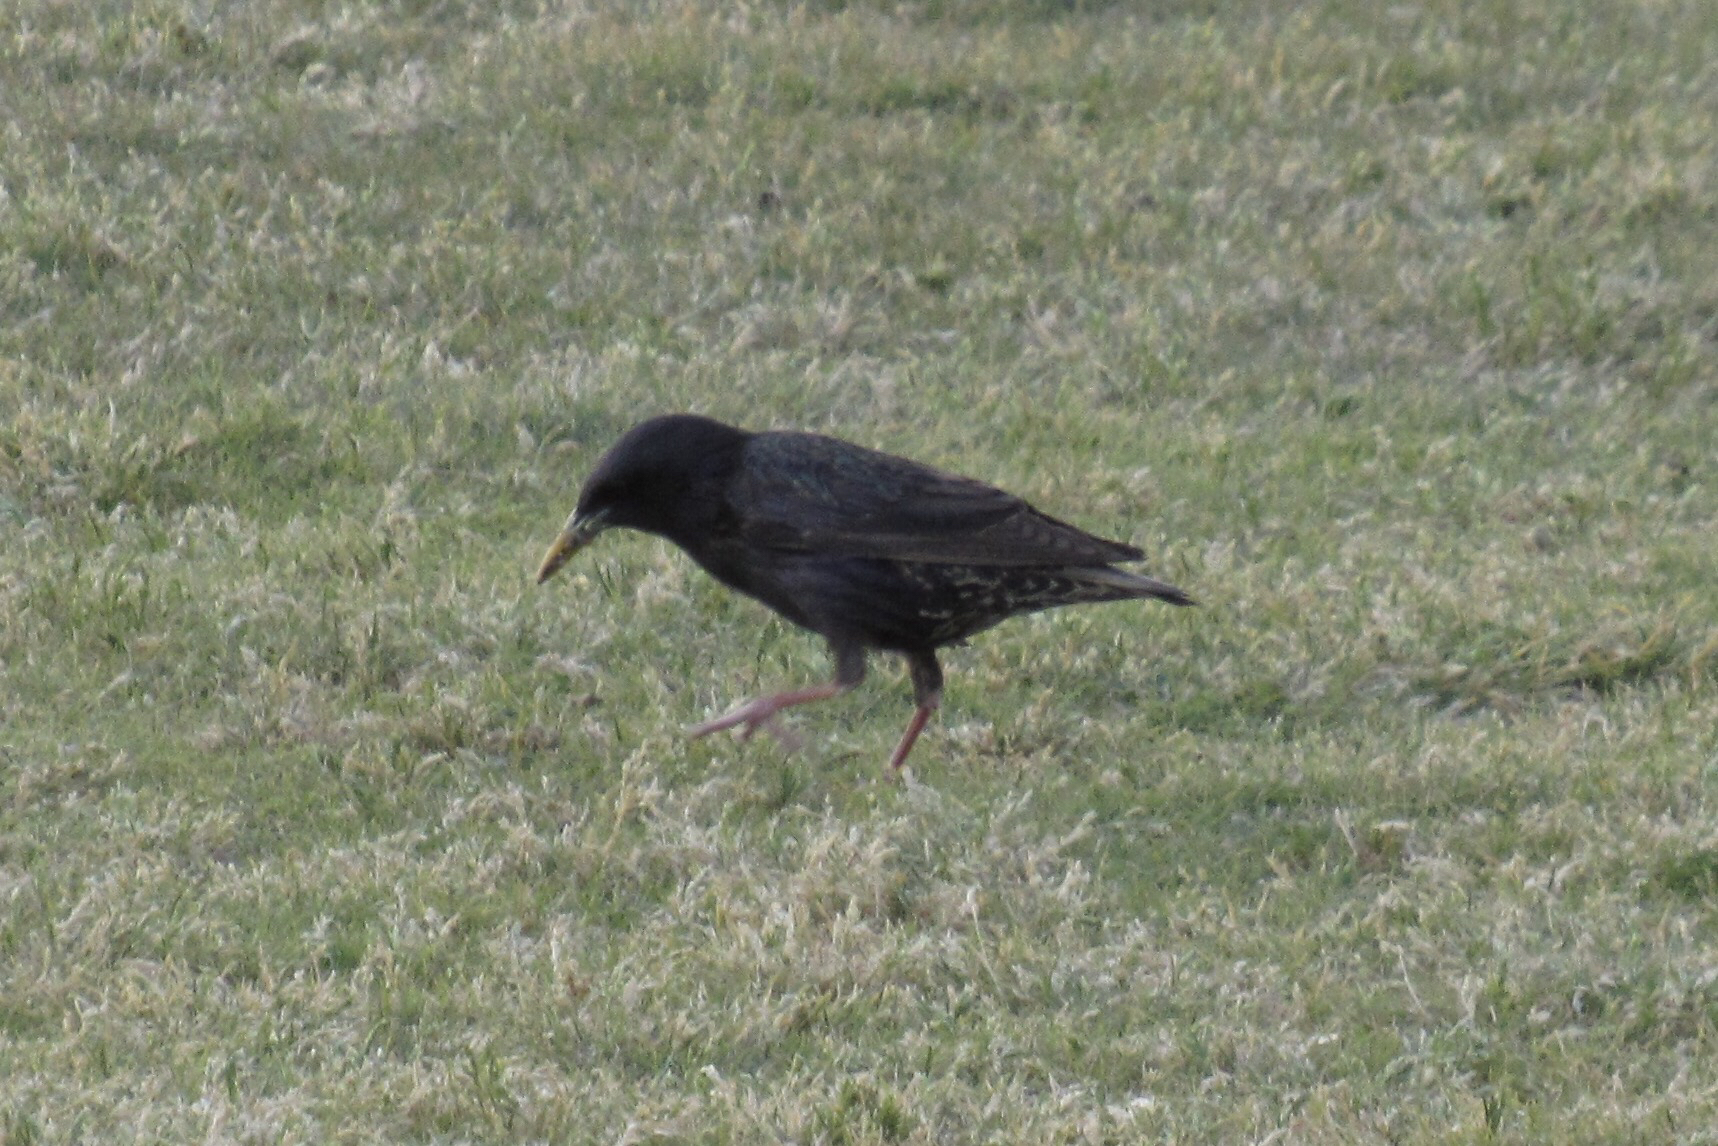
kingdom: Animalia
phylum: Chordata
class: Aves
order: Passeriformes
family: Sturnidae
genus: Sturnus
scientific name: Sturnus vulgaris
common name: Common starling
